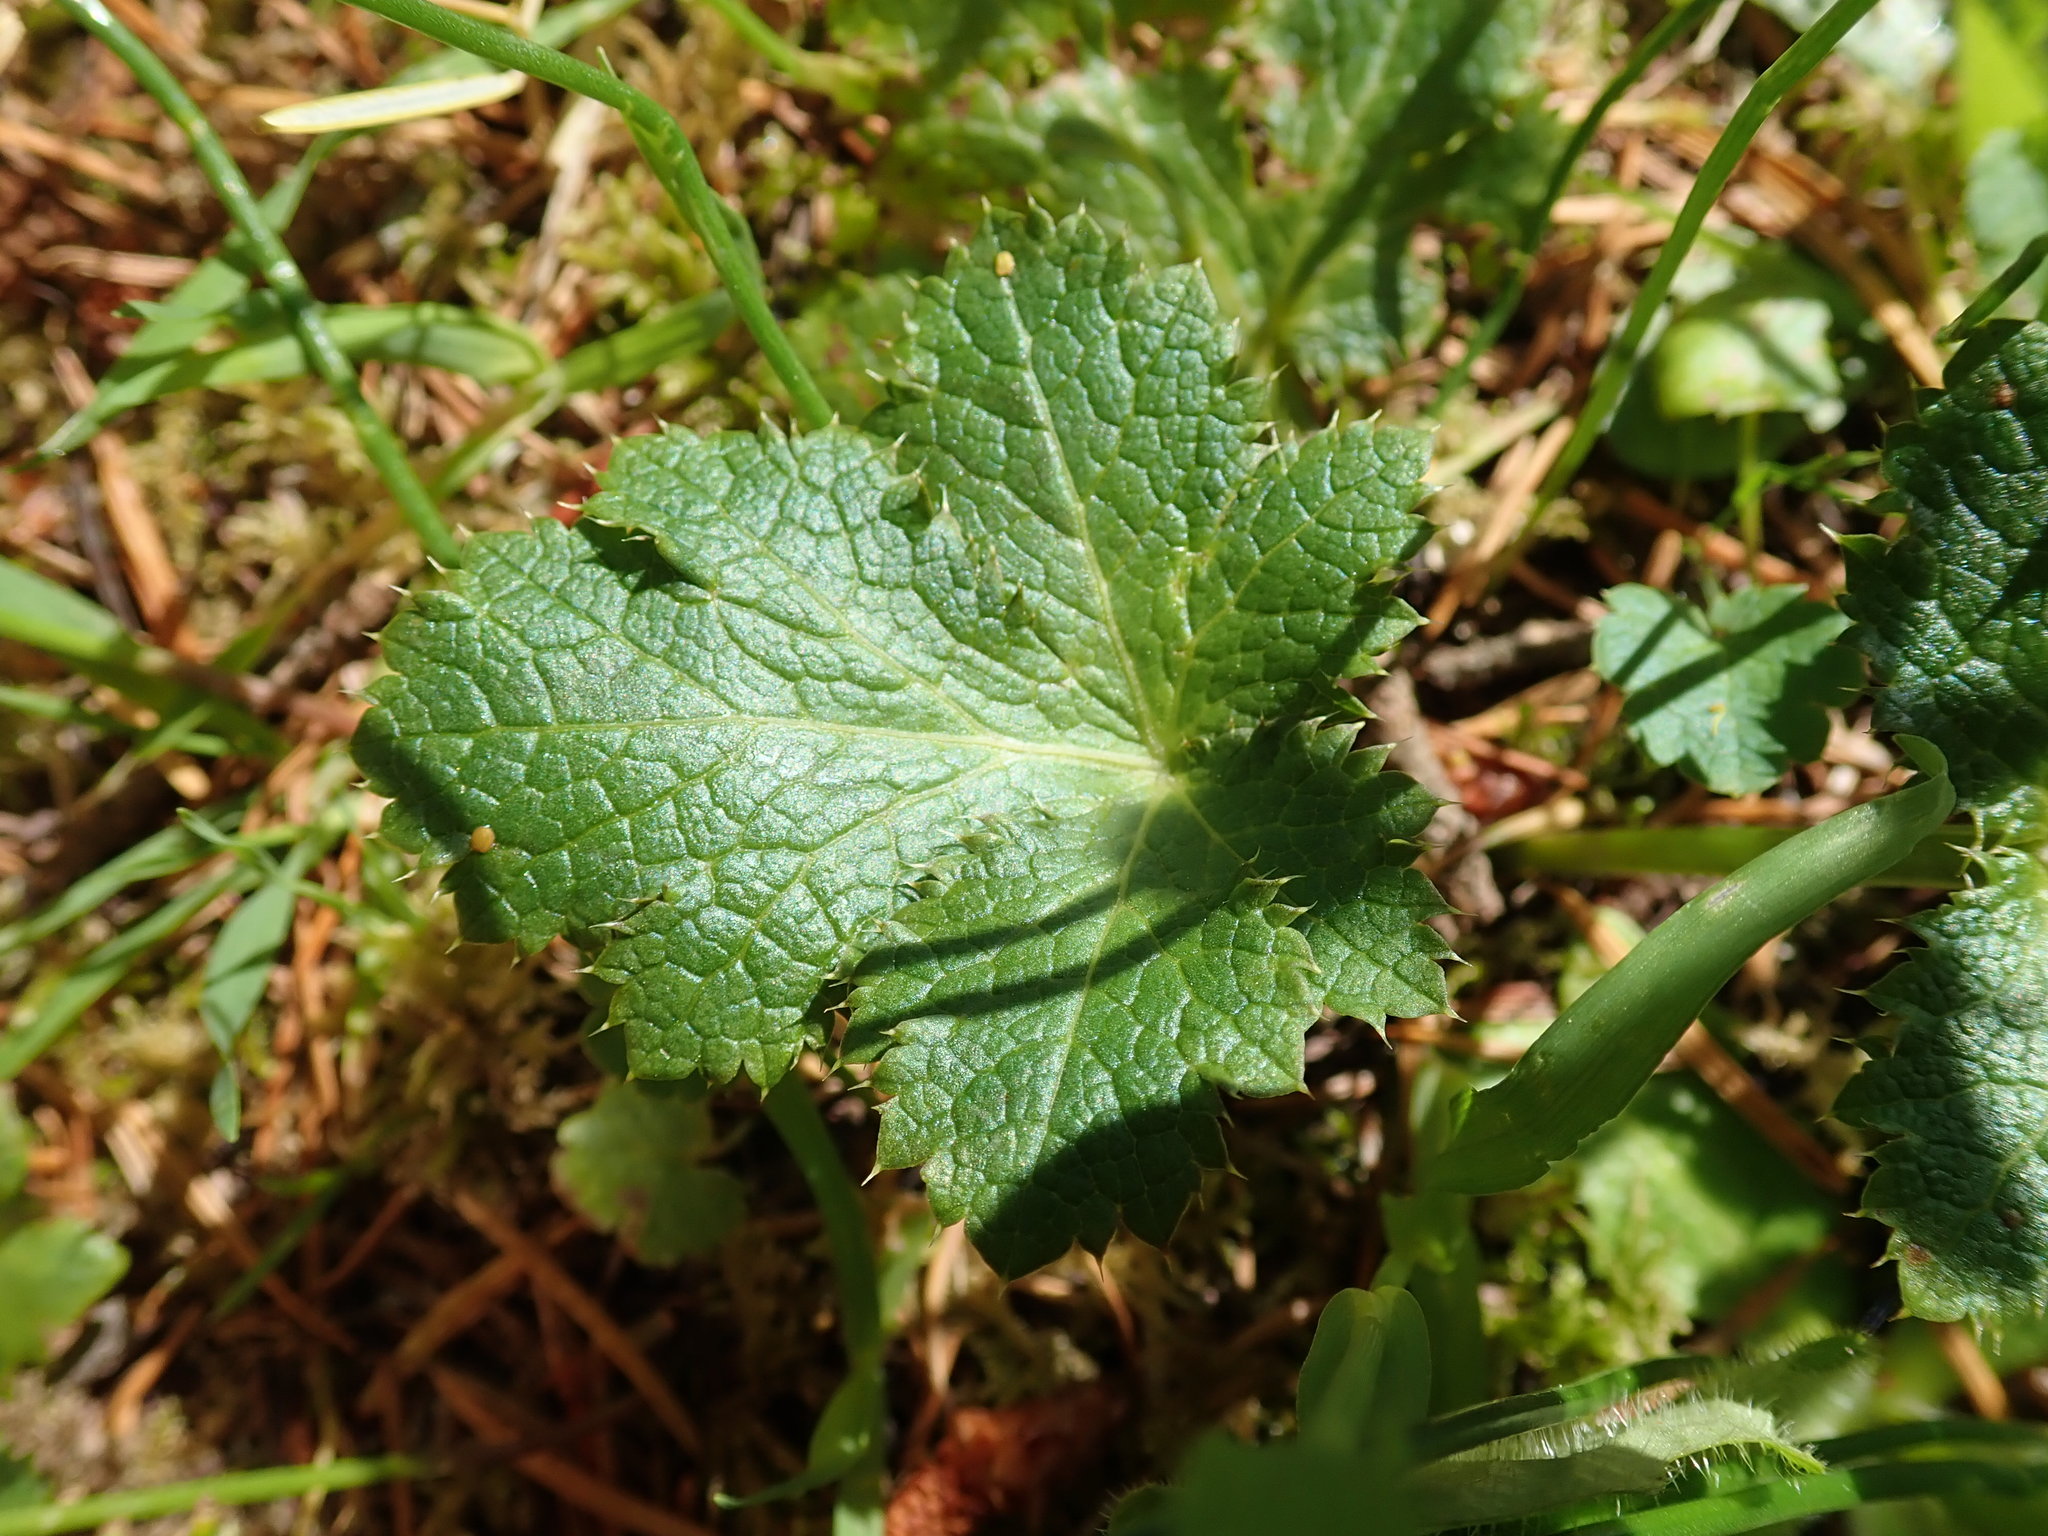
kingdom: Plantae
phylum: Tracheophyta
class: Magnoliopsida
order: Apiales
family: Apiaceae
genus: Sanicula
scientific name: Sanicula crassicaulis
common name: Western snakeroot
